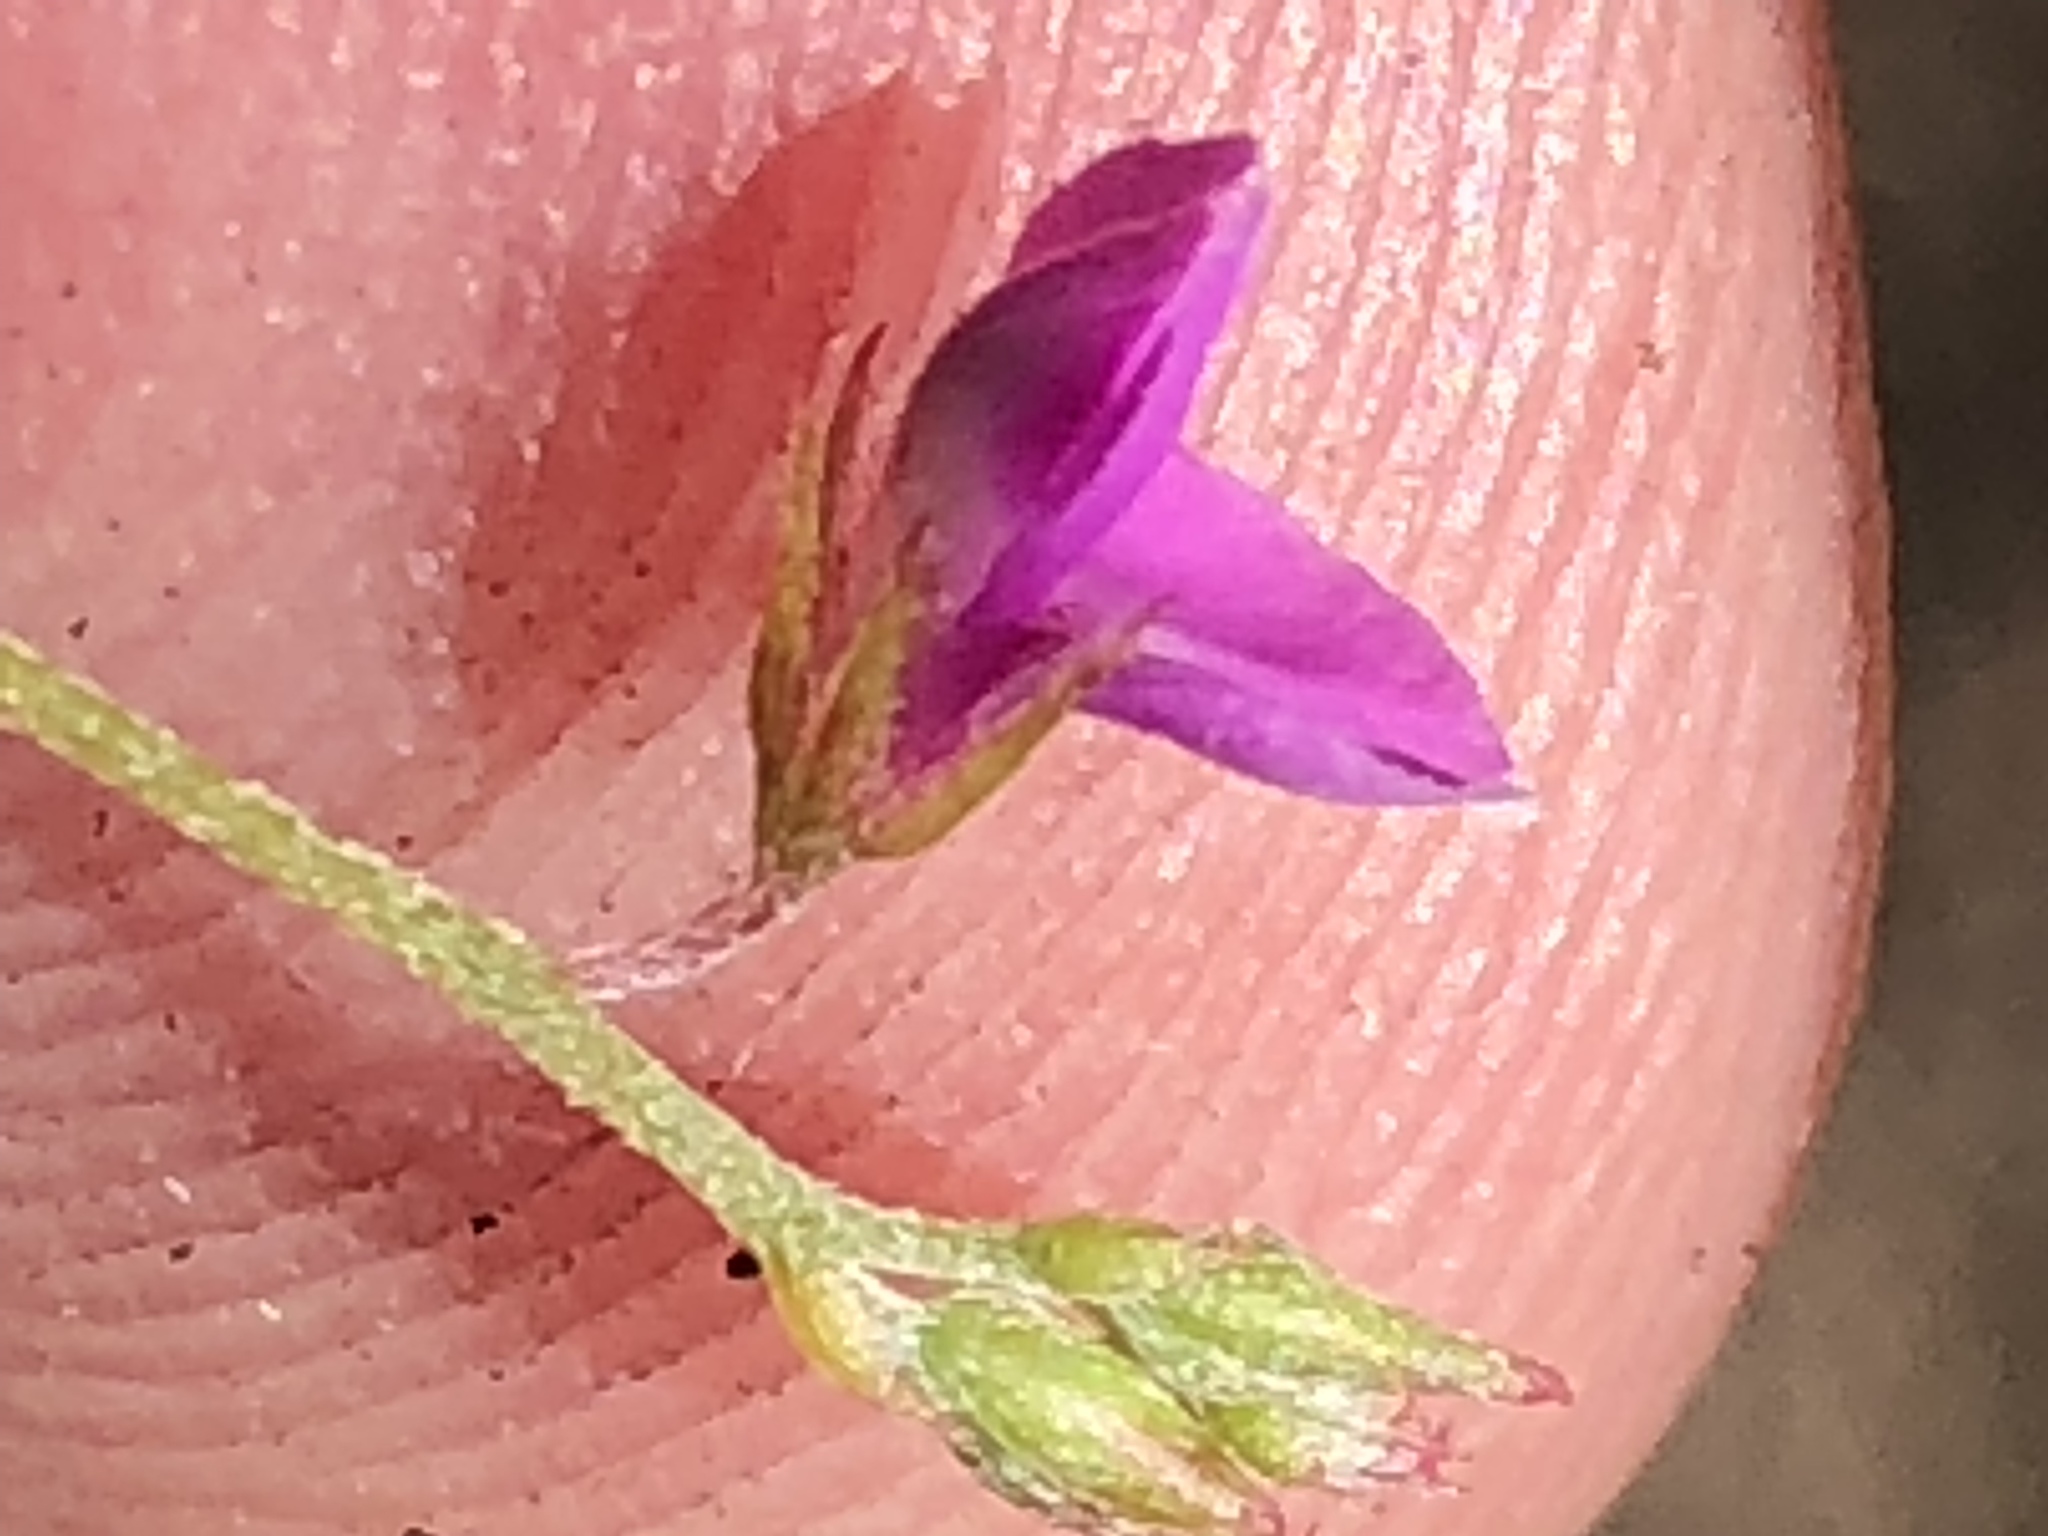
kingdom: Plantae
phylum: Tracheophyta
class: Magnoliopsida
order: Fabales
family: Fabaceae
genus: Indigofera
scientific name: Indigofera sarmentosa
